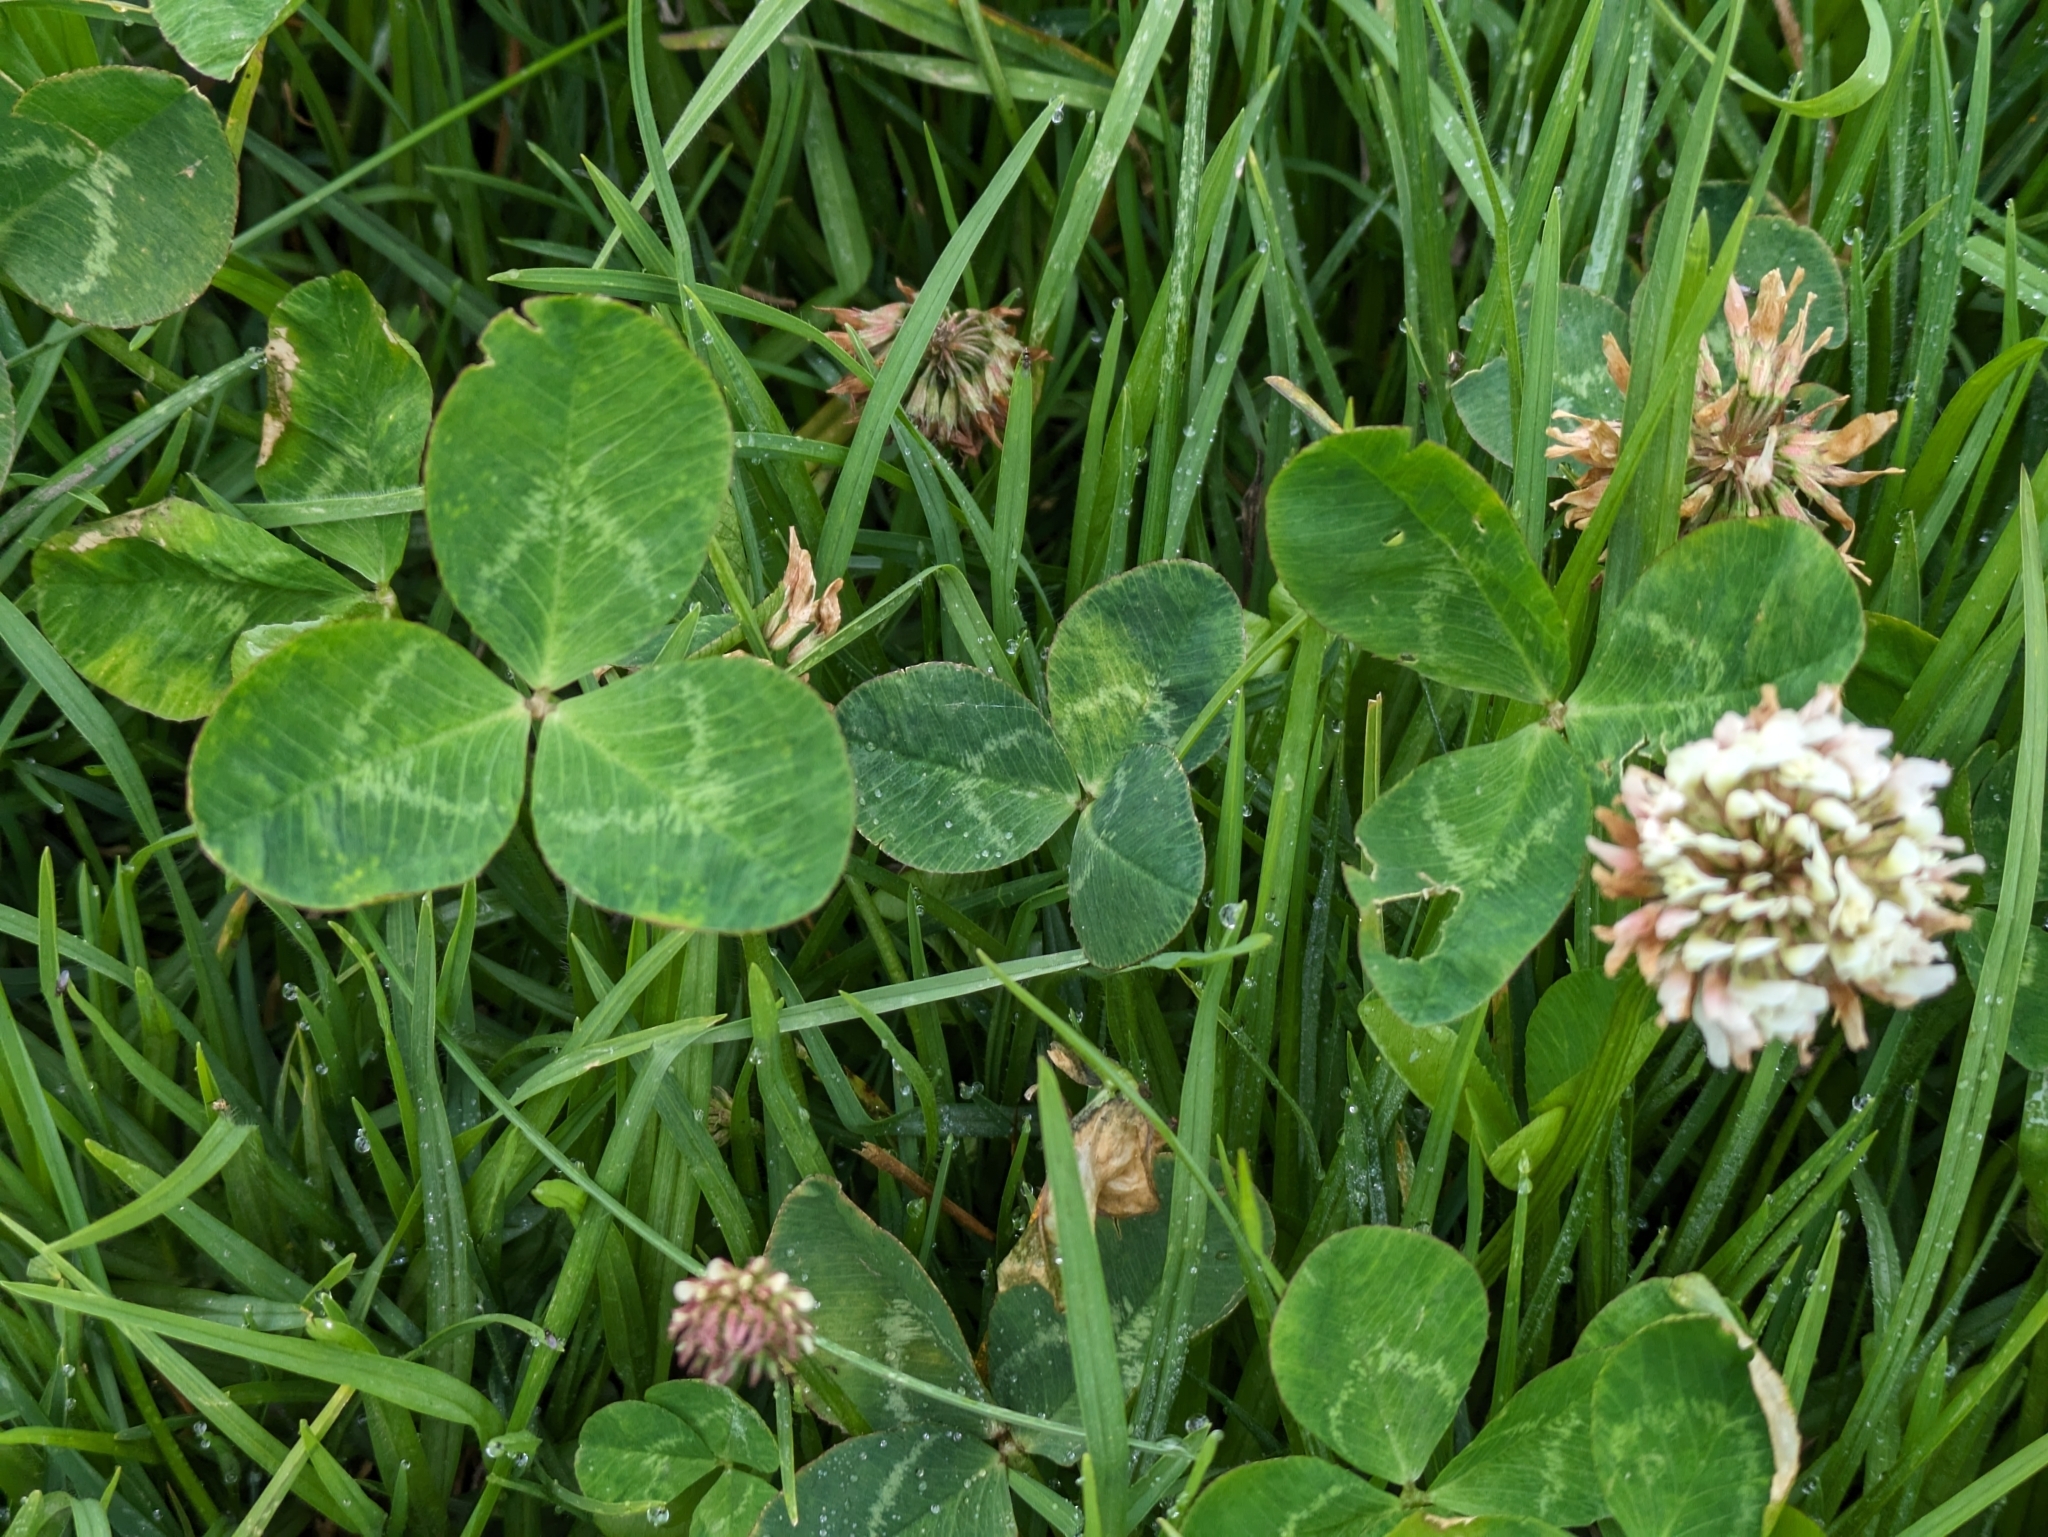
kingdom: Plantae
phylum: Tracheophyta
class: Magnoliopsida
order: Fabales
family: Fabaceae
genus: Trifolium
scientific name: Trifolium repens
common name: White clover
